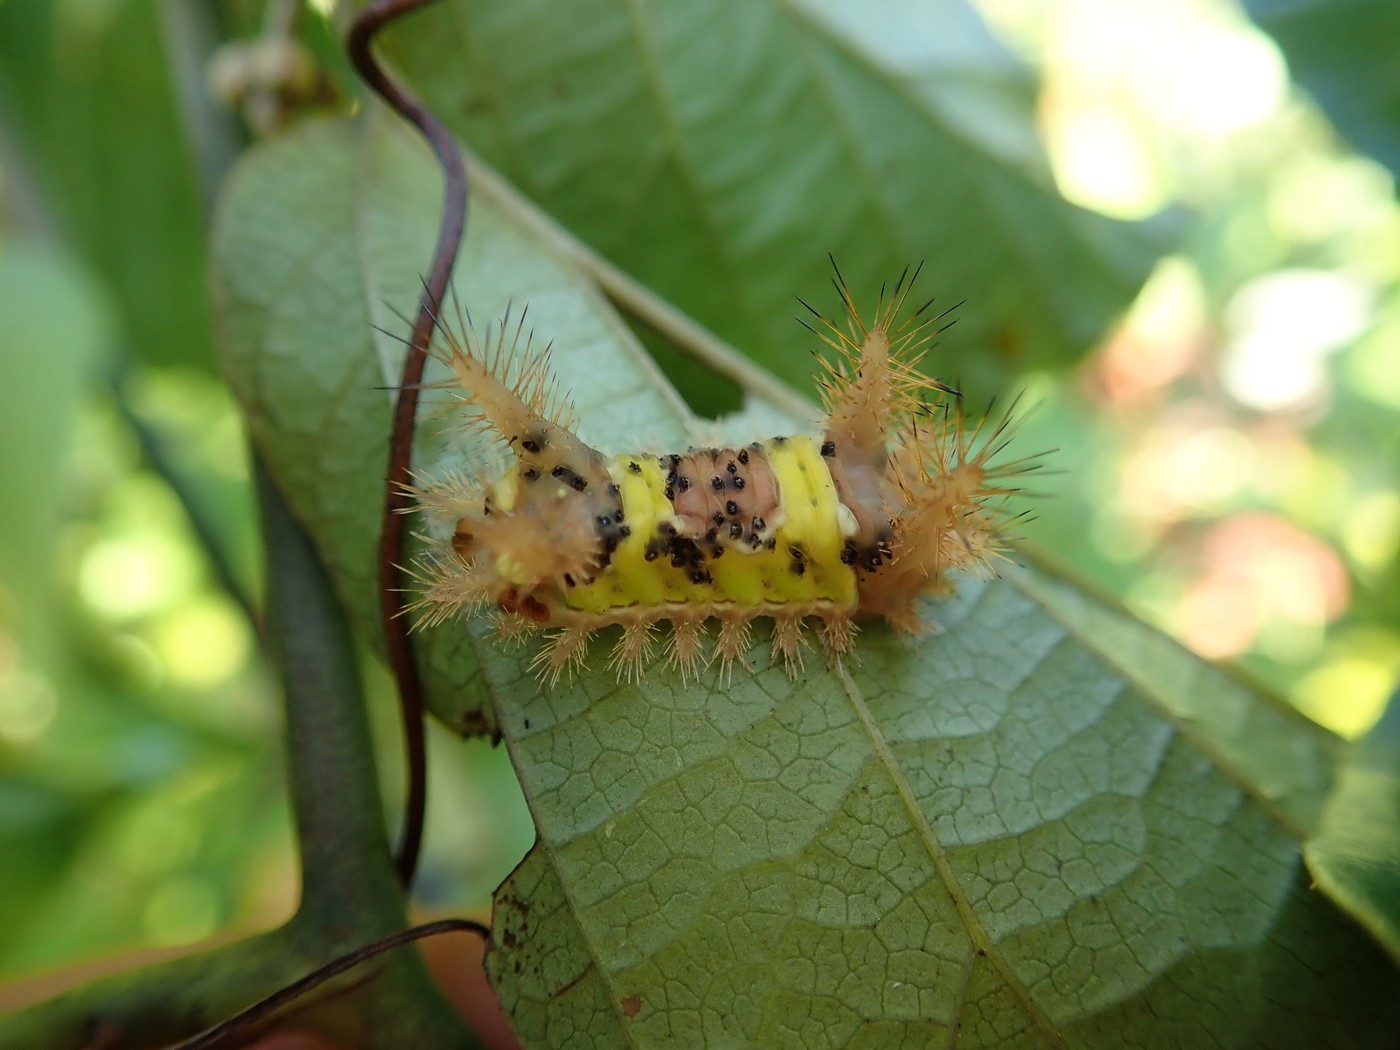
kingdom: Animalia
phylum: Arthropoda
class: Insecta
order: Lepidoptera
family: Limacodidae
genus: Acharia
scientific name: Acharia stimulea
